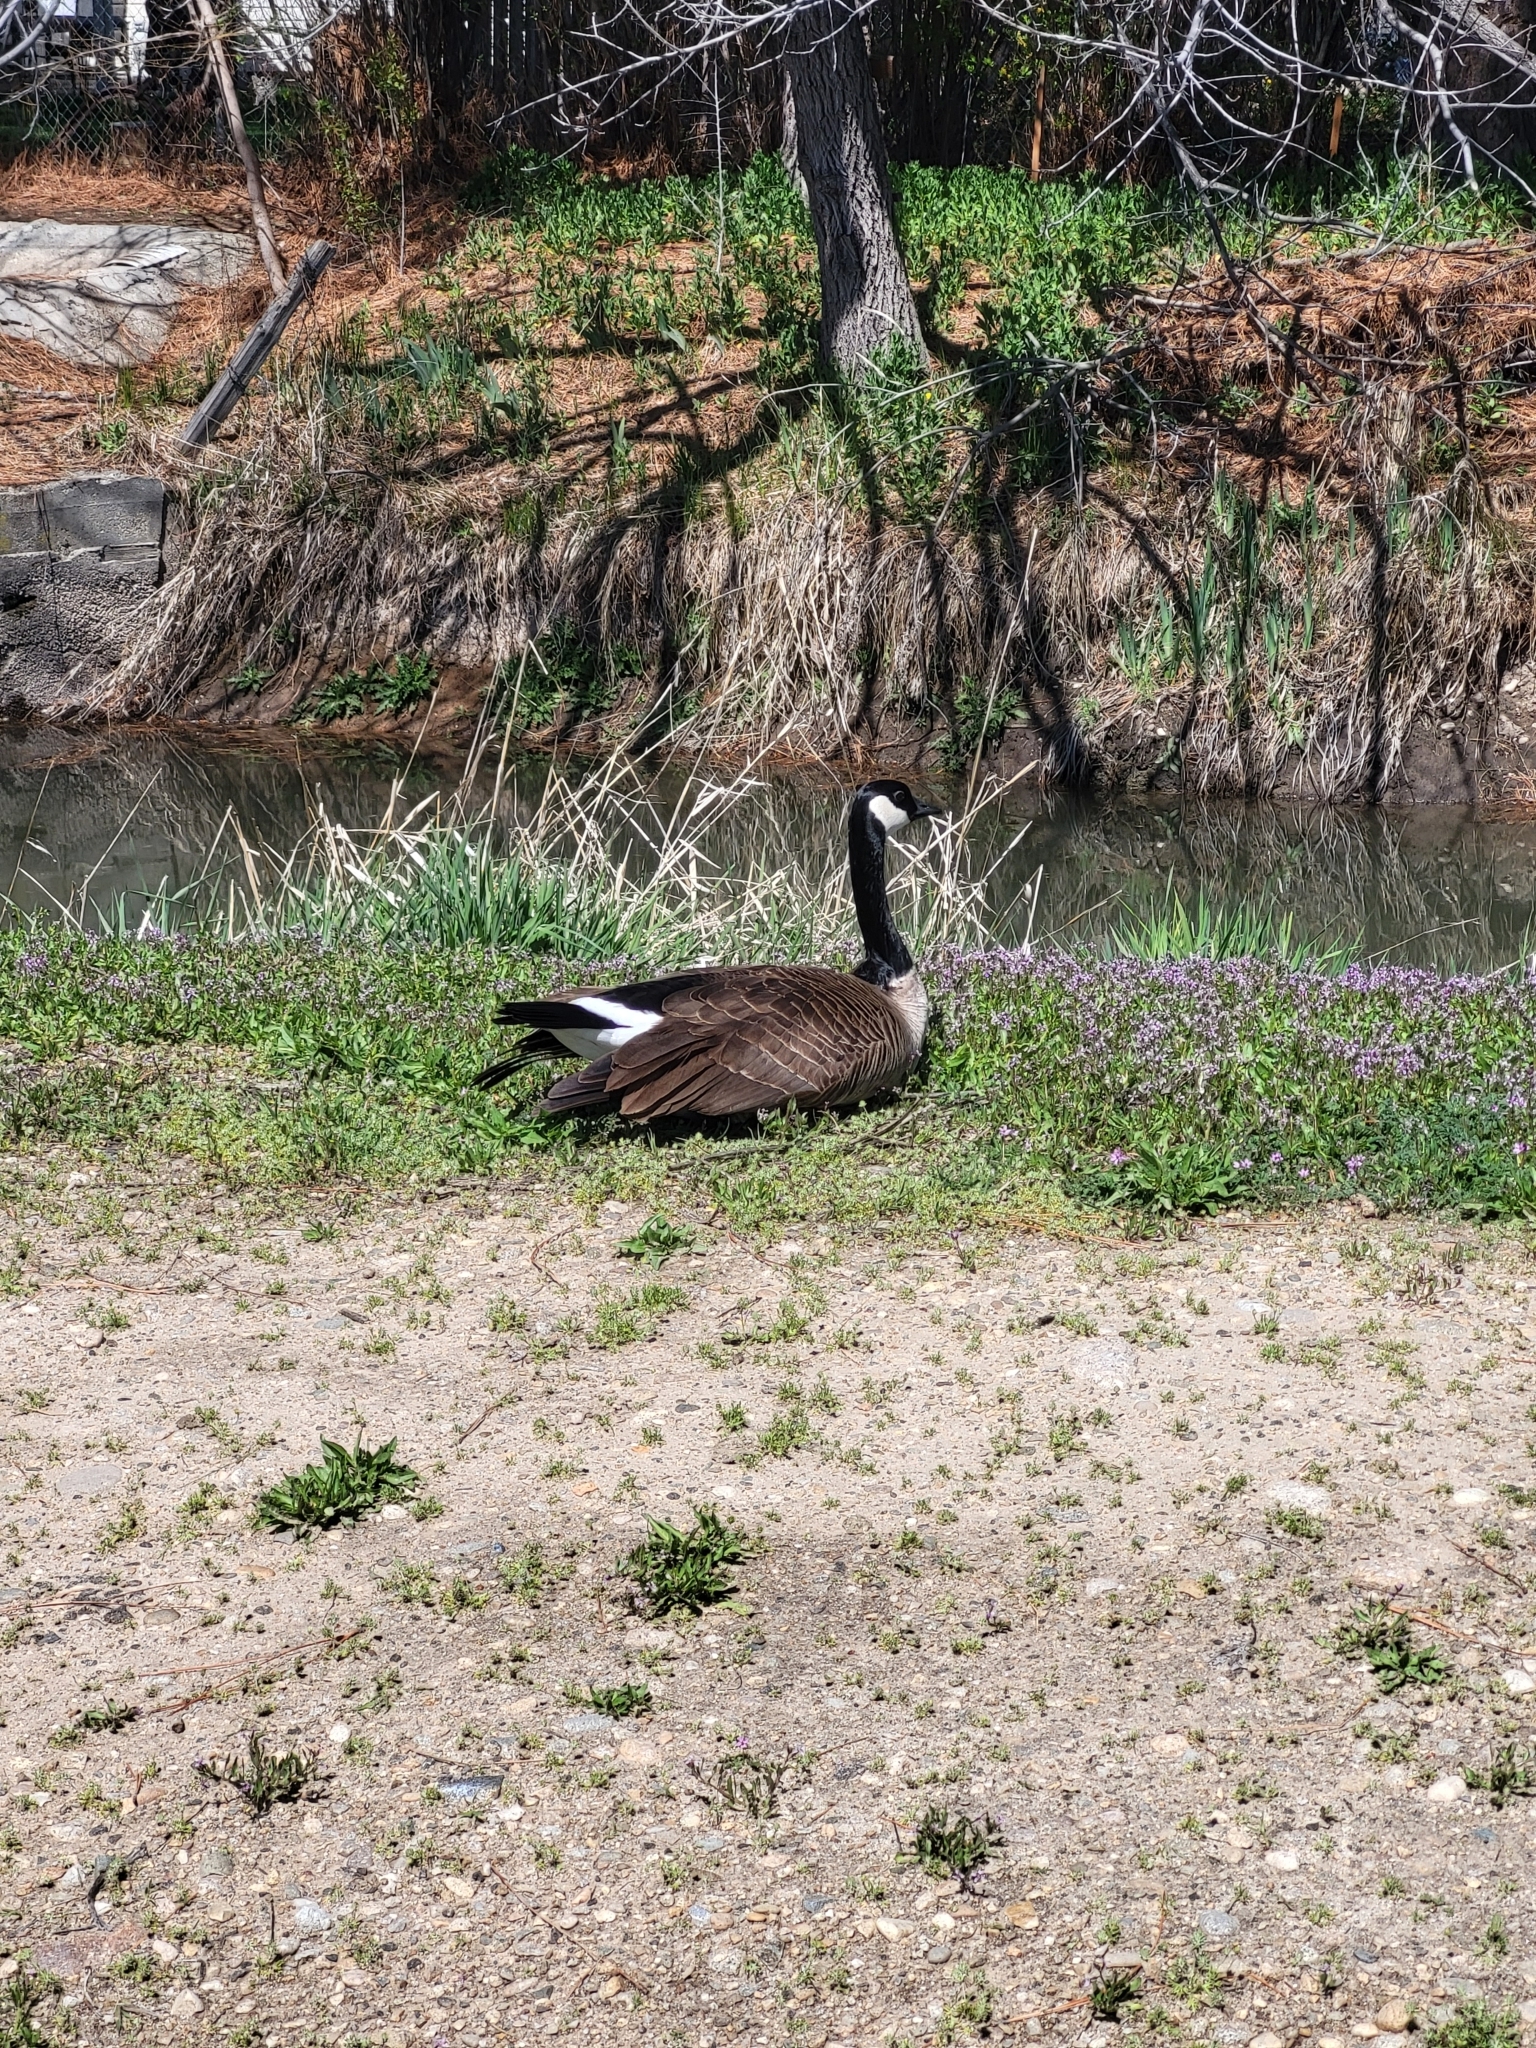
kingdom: Animalia
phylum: Chordata
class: Aves
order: Anseriformes
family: Anatidae
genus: Branta
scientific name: Branta canadensis
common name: Canada goose
